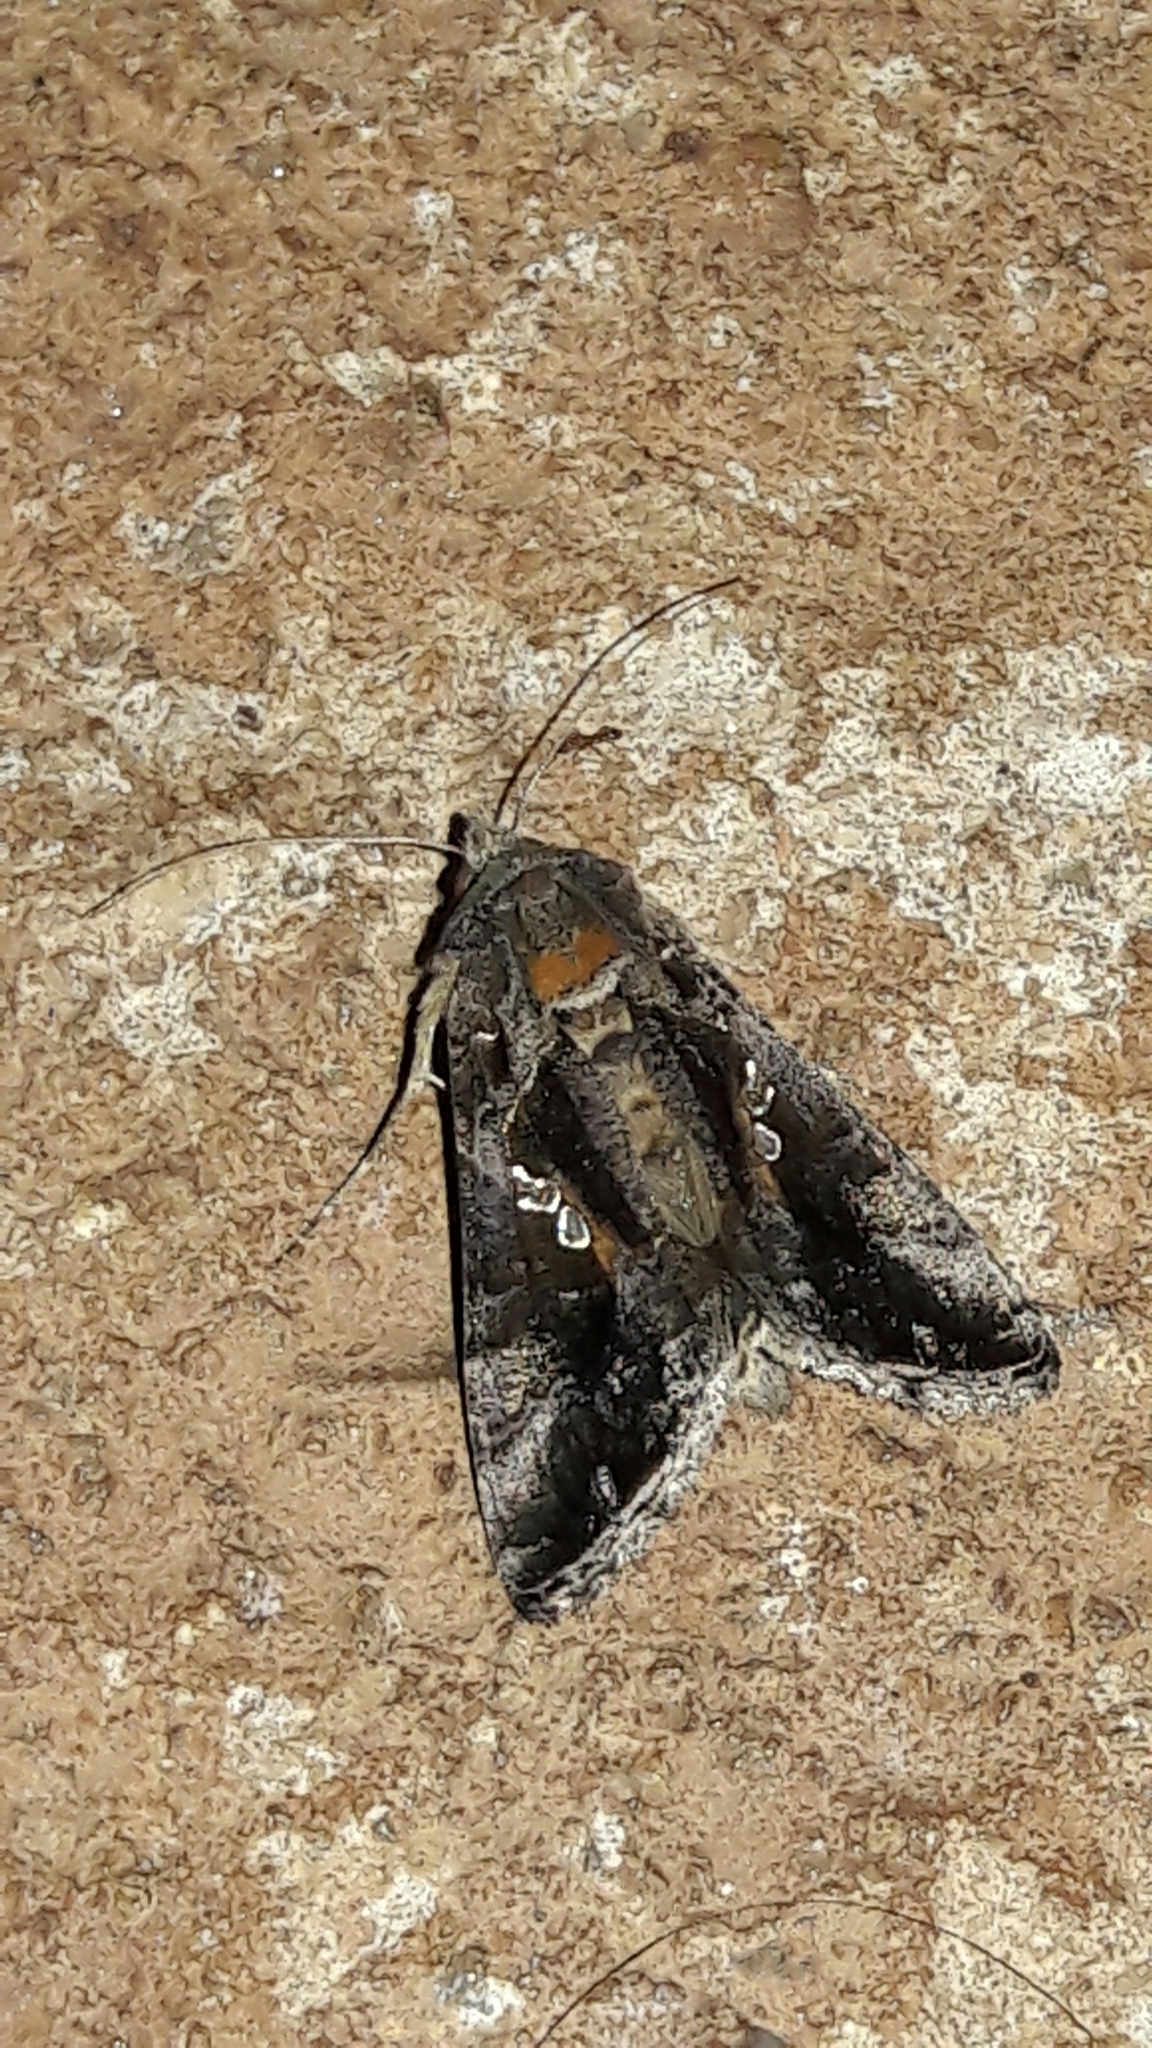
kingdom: Animalia
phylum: Arthropoda
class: Insecta
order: Lepidoptera
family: Noctuidae
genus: Chrysodeixis
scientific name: Chrysodeixis includens
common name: Cutworm moth
